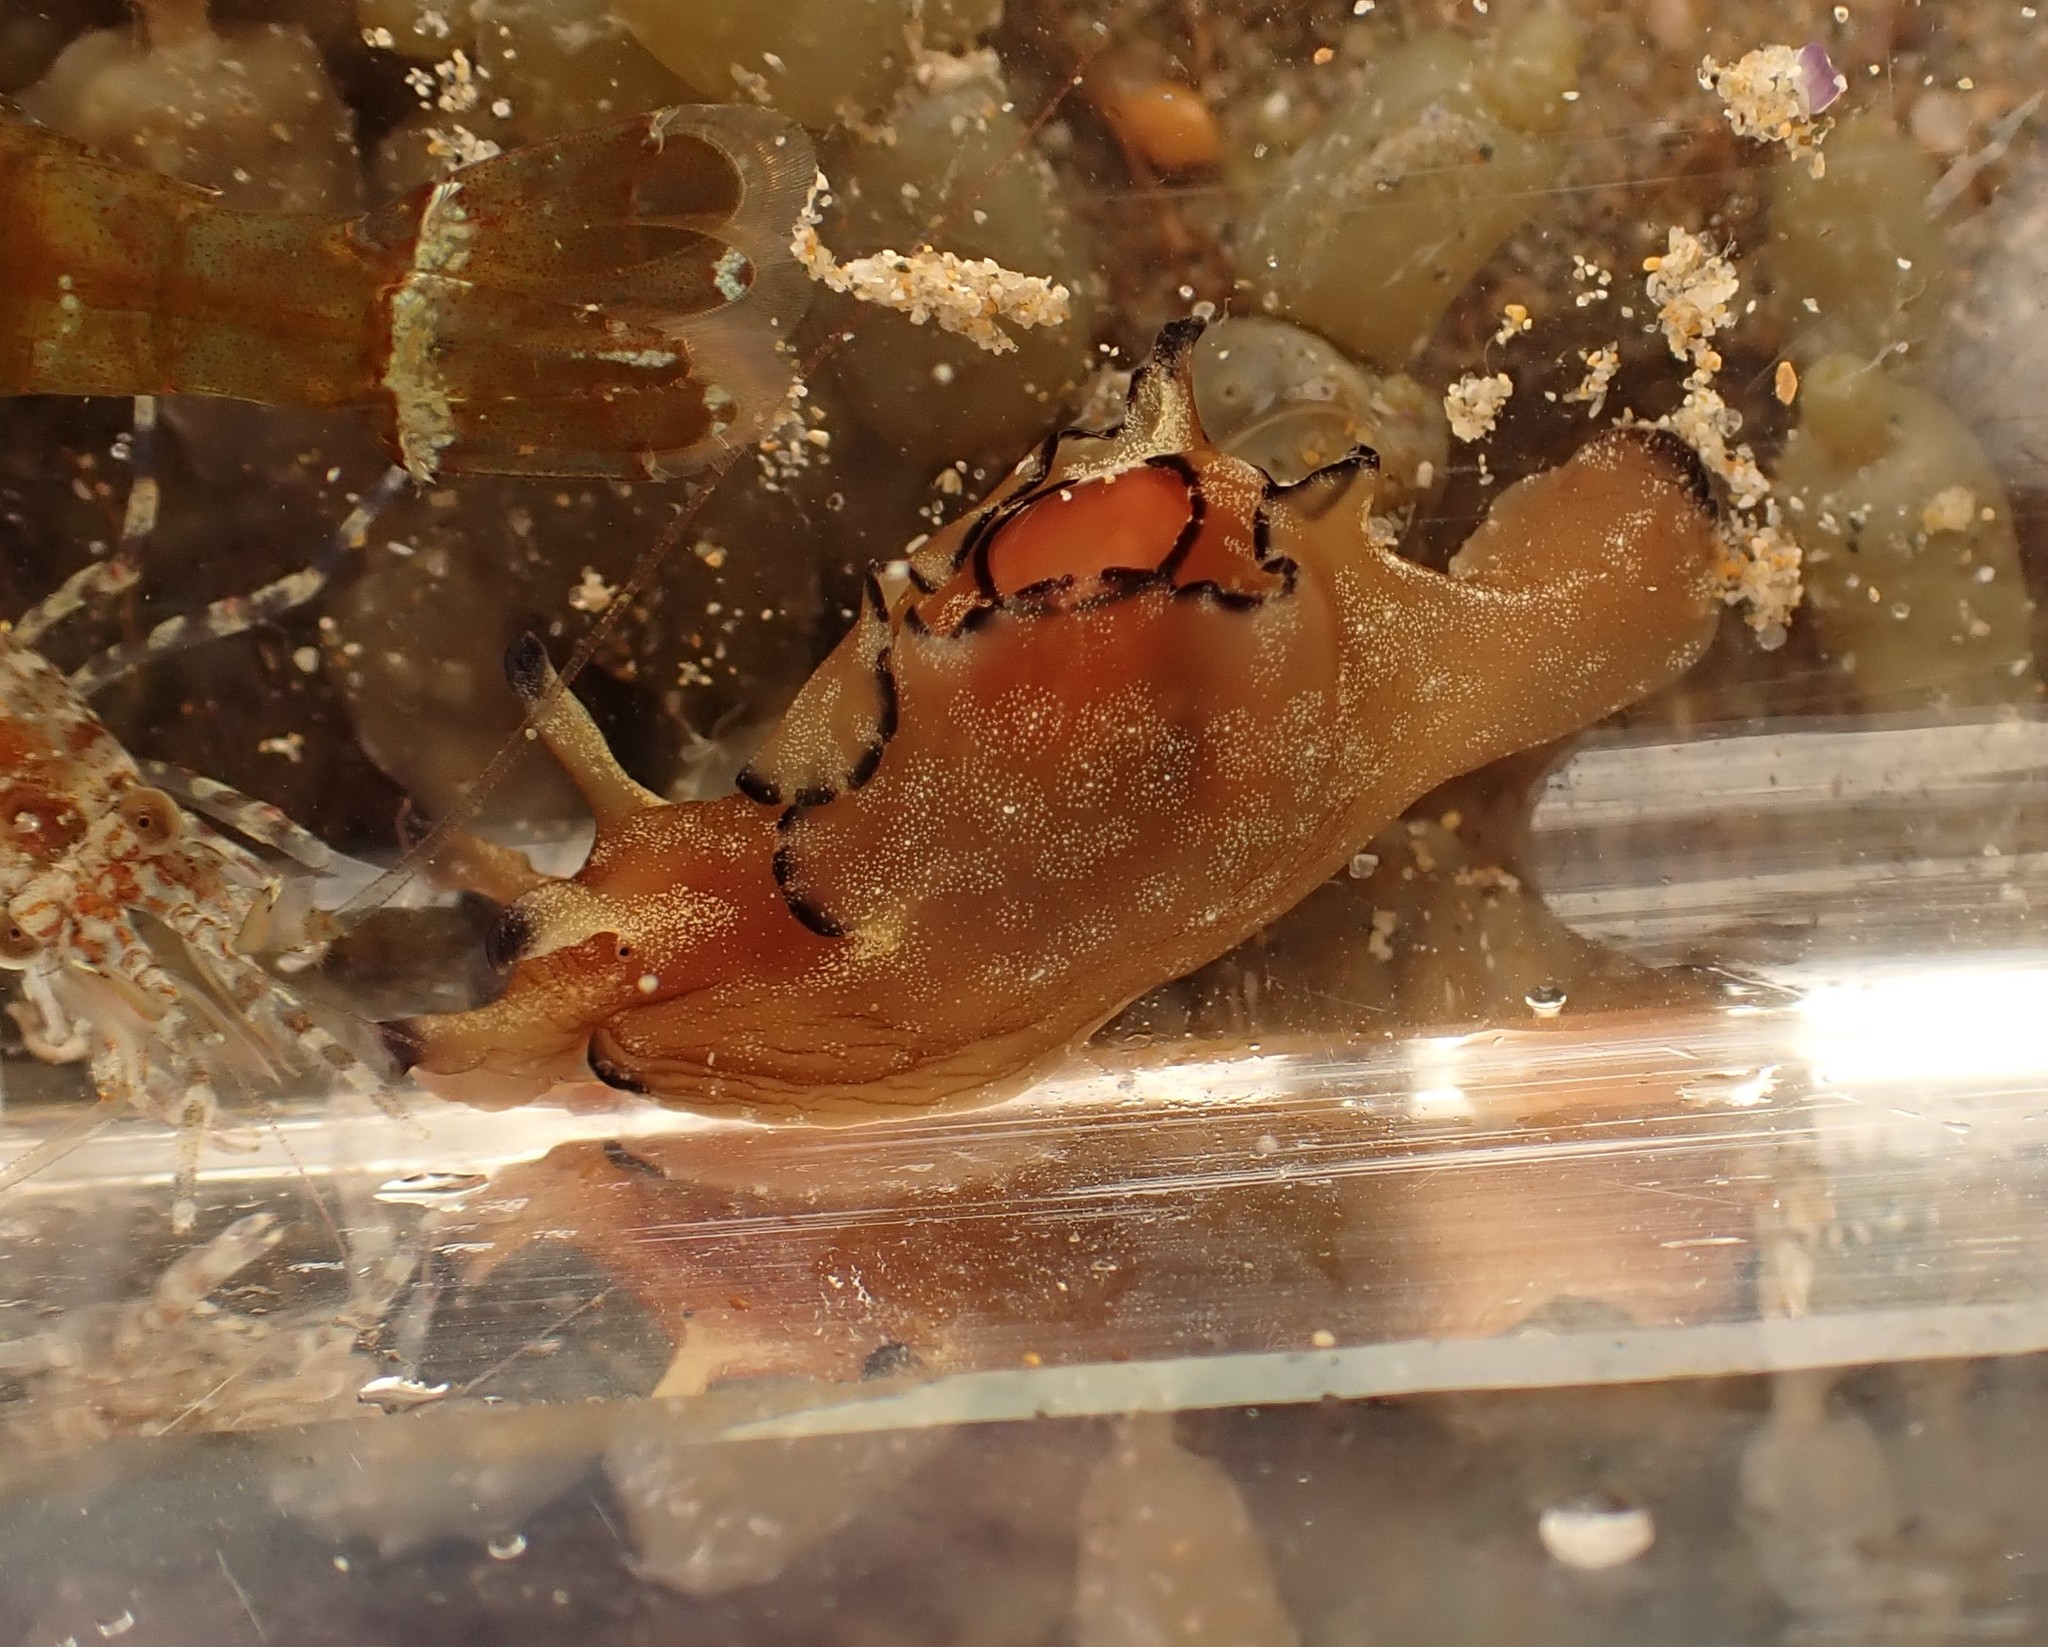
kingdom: Animalia
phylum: Mollusca
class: Gastropoda
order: Aplysiida
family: Aplysiidae
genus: Aplysia
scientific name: Aplysia concava
